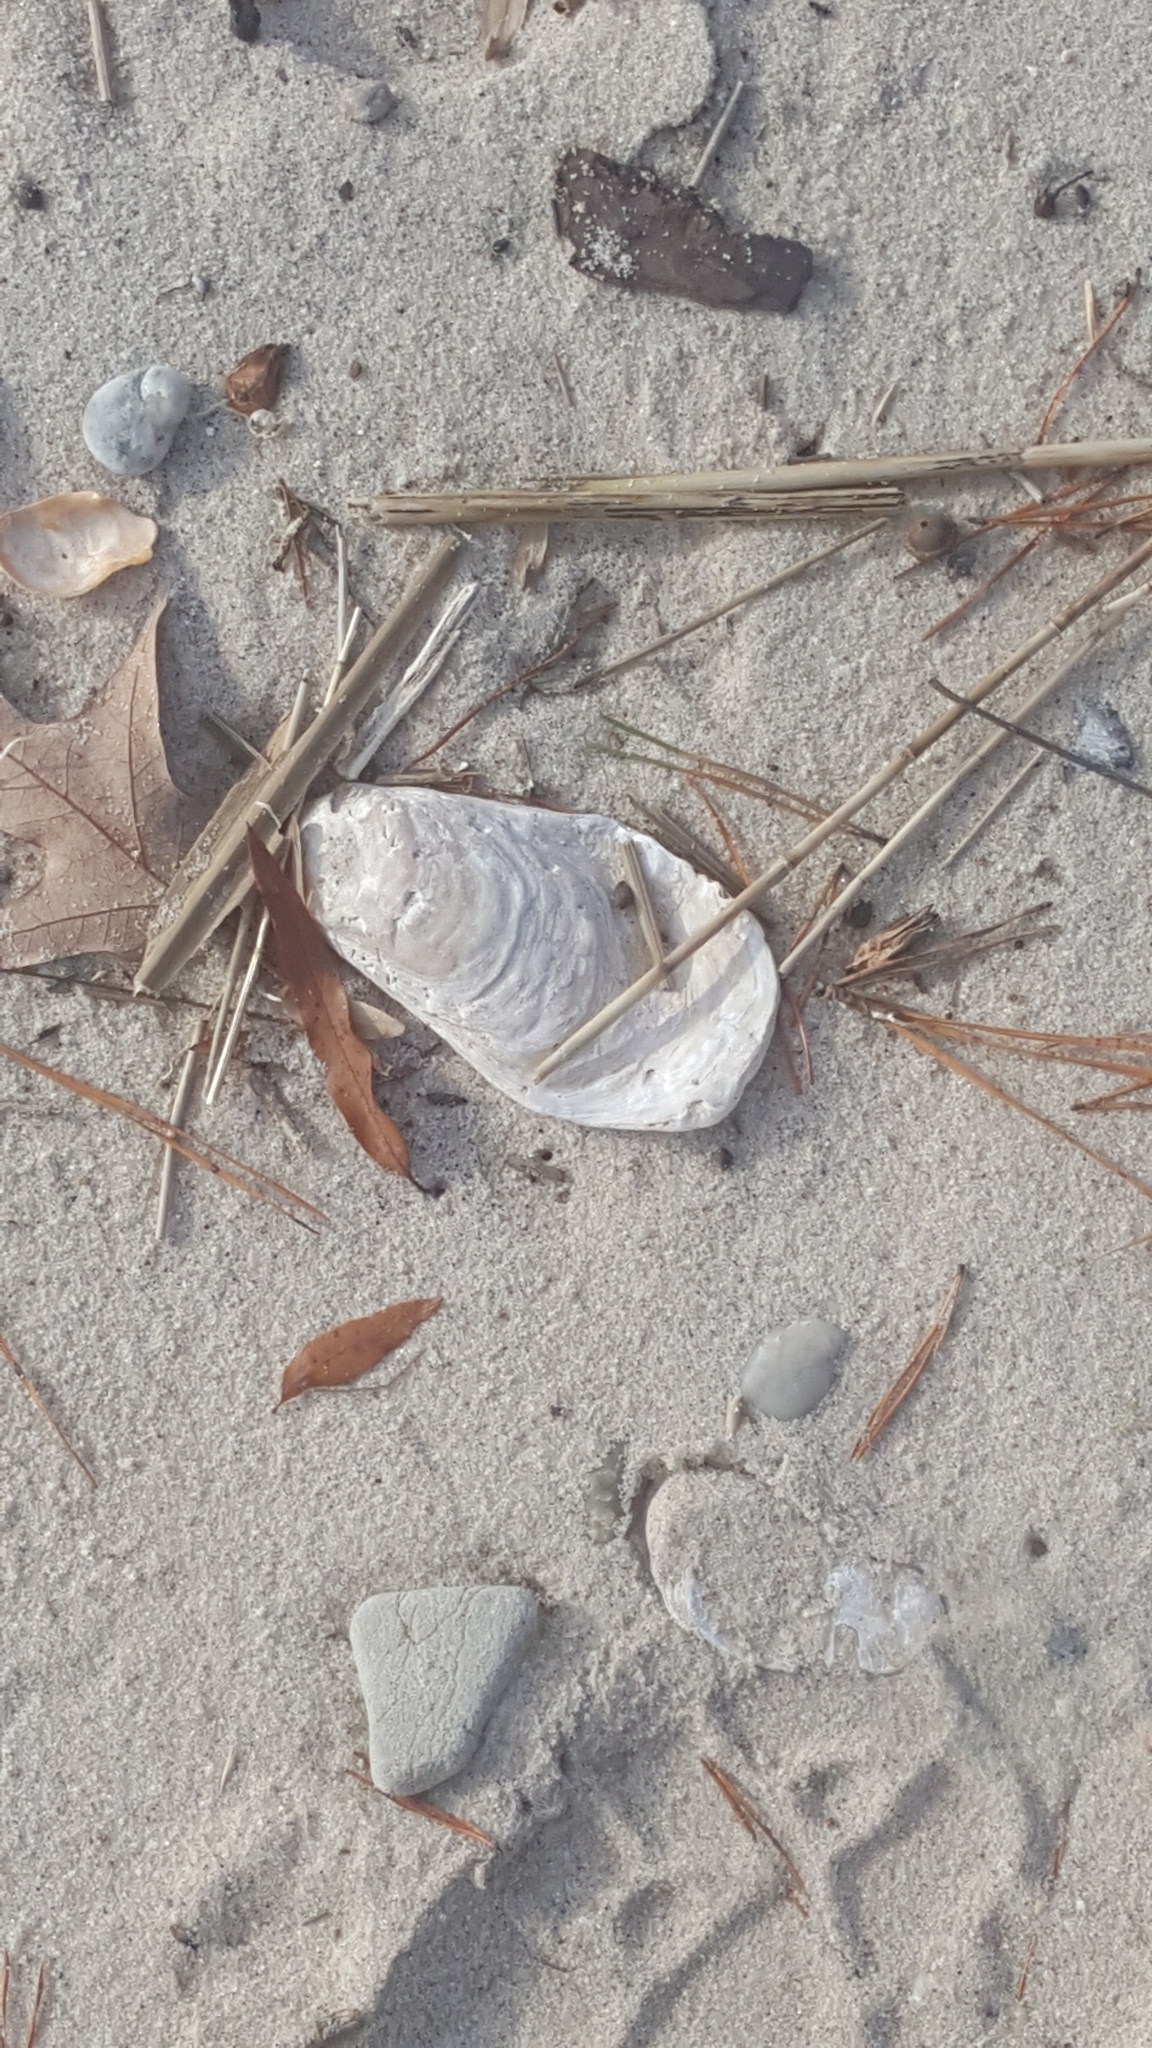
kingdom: Animalia
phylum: Mollusca
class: Bivalvia
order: Ostreida
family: Ostreidae
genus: Crassostrea
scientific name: Crassostrea virginica
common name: American oyster
